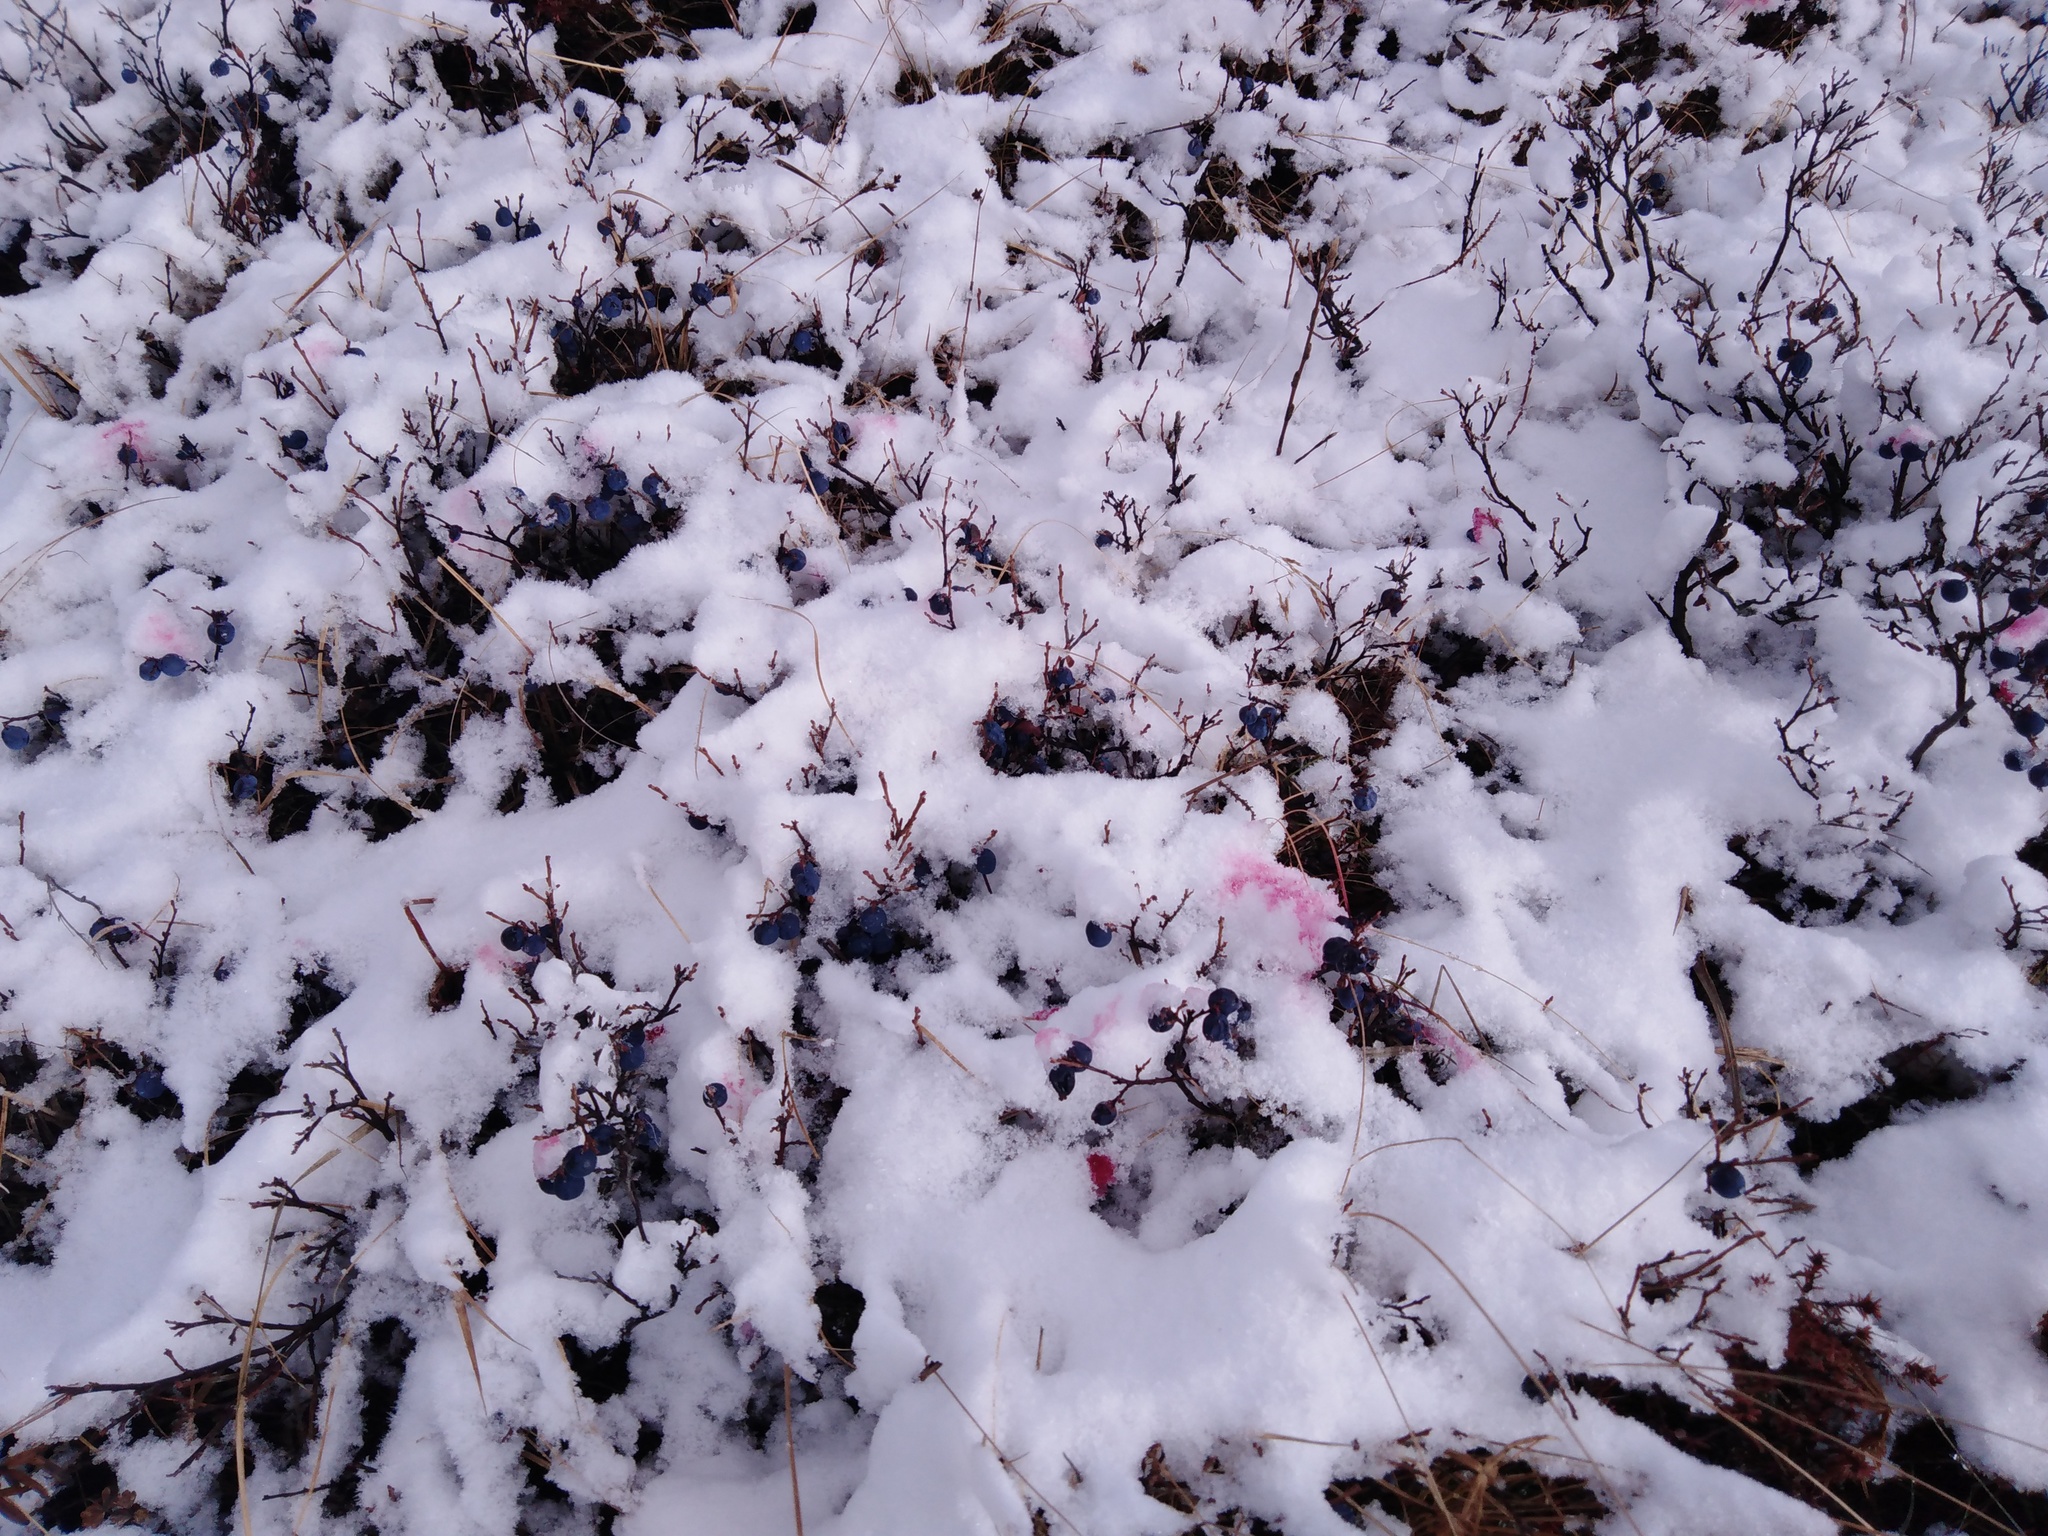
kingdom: Plantae
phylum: Tracheophyta
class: Magnoliopsida
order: Ericales
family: Ericaceae
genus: Vaccinium
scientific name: Vaccinium uliginosum
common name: Bog bilberry
